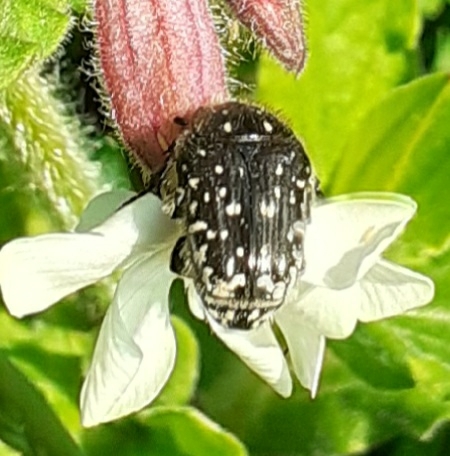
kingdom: Animalia
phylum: Arthropoda
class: Insecta
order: Coleoptera
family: Scarabaeidae
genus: Oxythyrea
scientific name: Oxythyrea funesta
